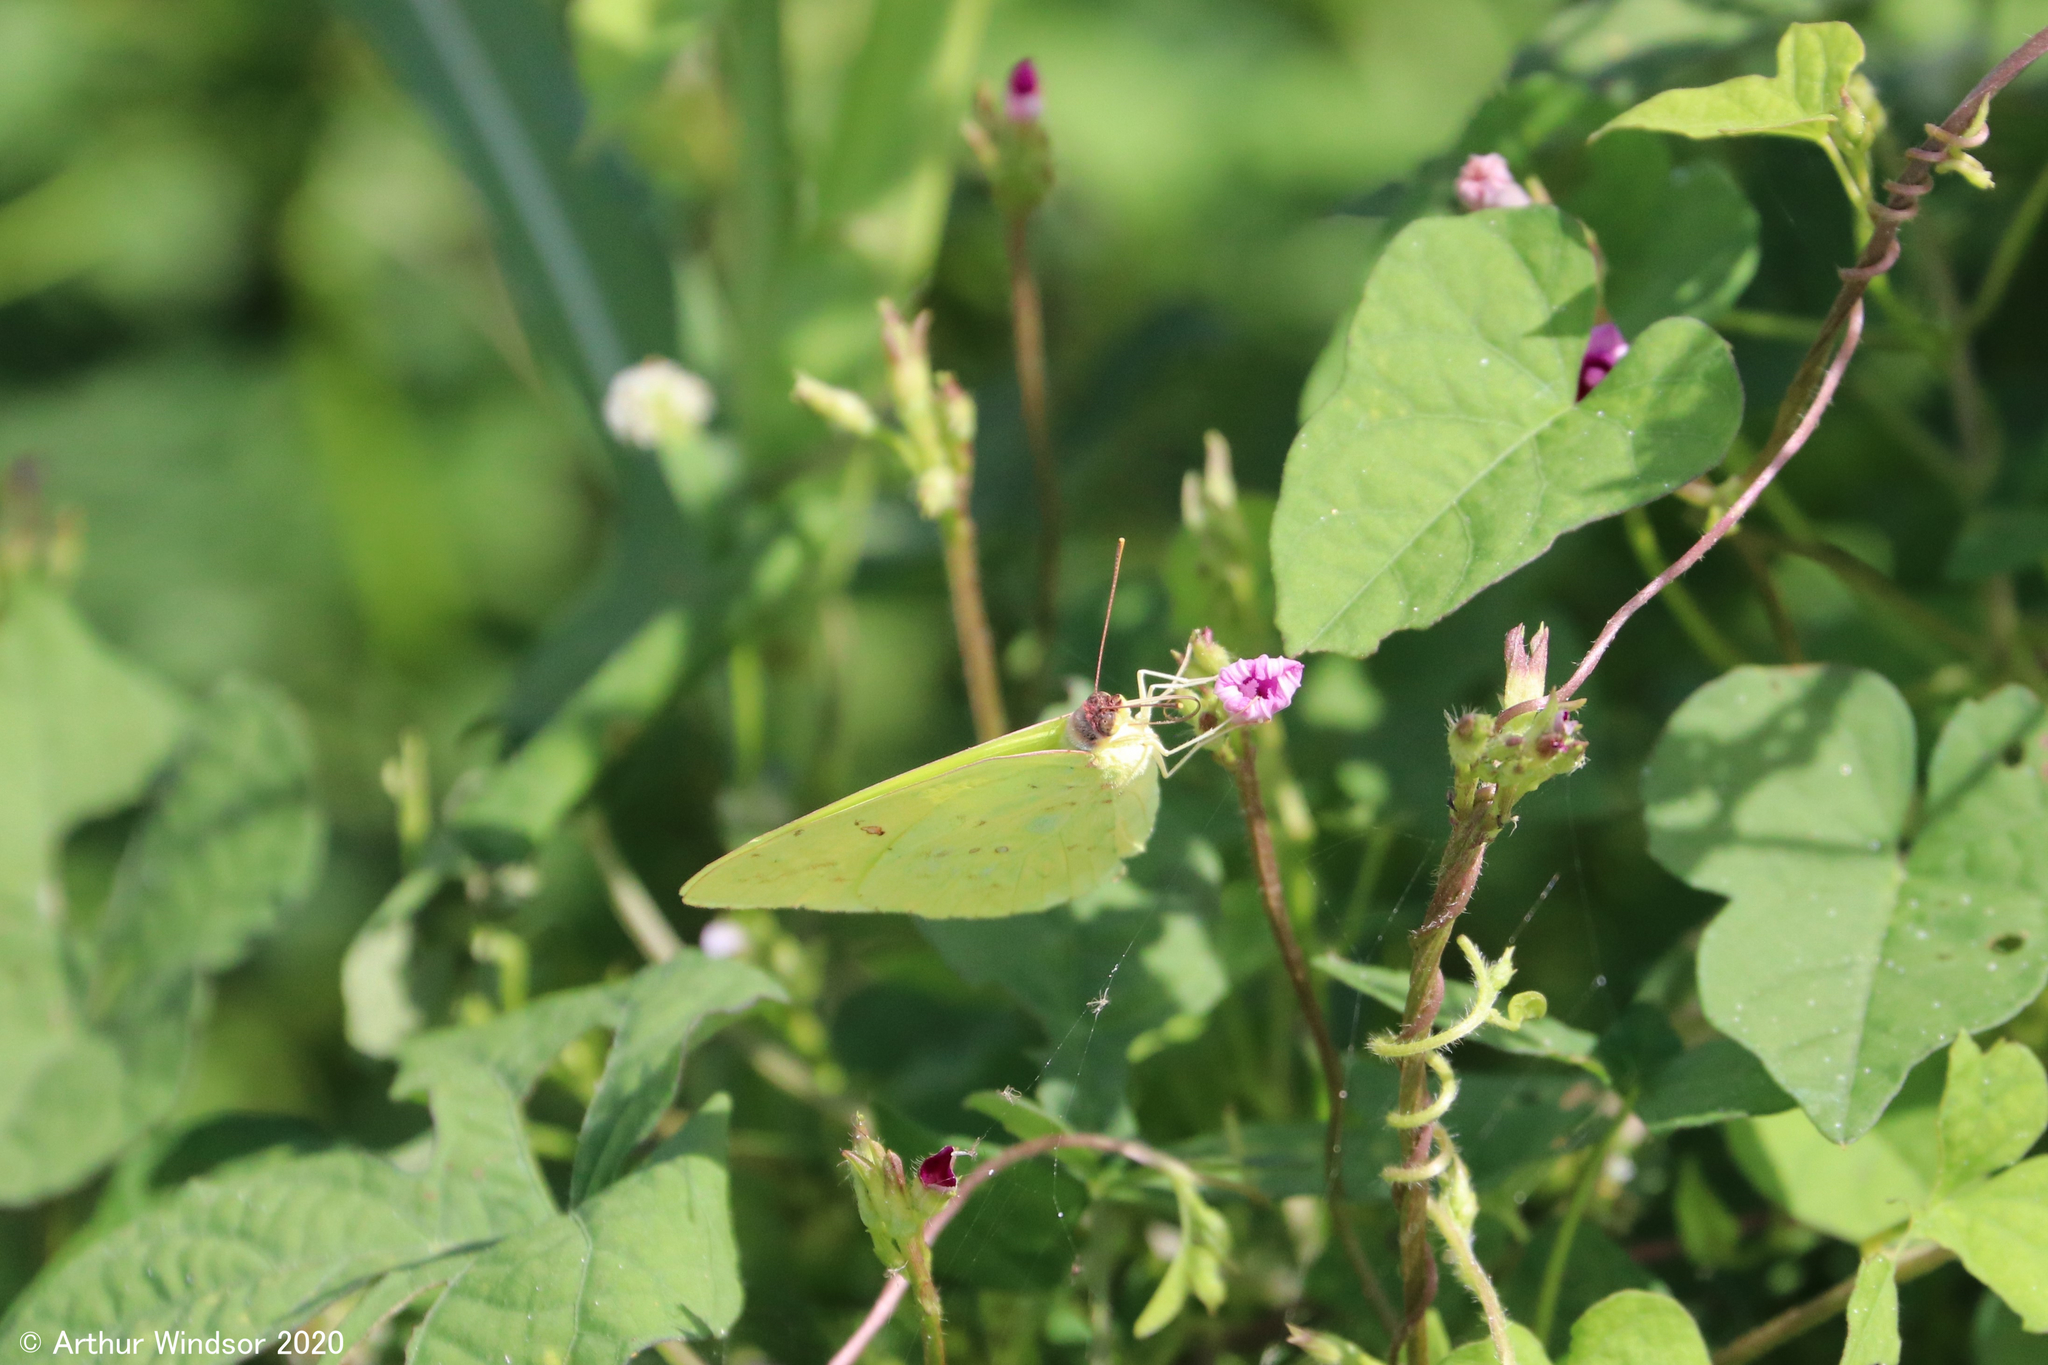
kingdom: Animalia
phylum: Arthropoda
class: Insecta
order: Lepidoptera
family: Pieridae
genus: Phoebis
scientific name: Phoebis sennae
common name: Cloudless sulphur
